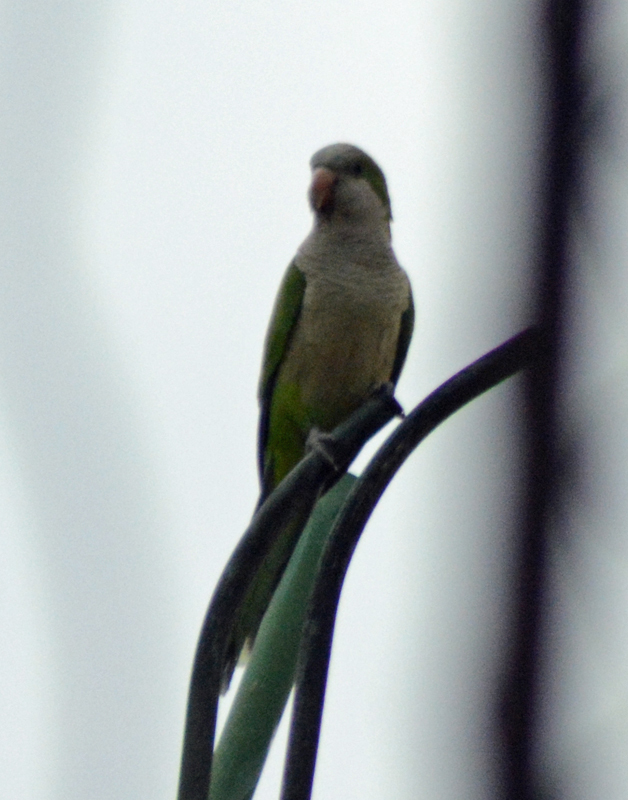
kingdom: Animalia
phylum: Chordata
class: Aves
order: Psittaciformes
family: Psittacidae
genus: Myiopsitta
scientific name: Myiopsitta monachus
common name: Monk parakeet
